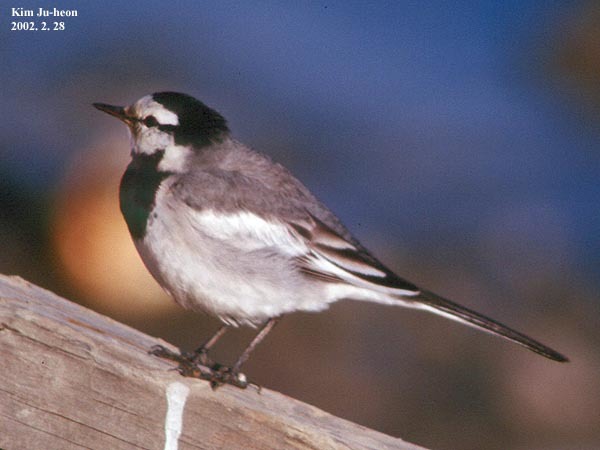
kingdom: Animalia
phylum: Chordata
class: Aves
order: Passeriformes
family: Motacillidae
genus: Motacilla
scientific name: Motacilla alba
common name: White wagtail
